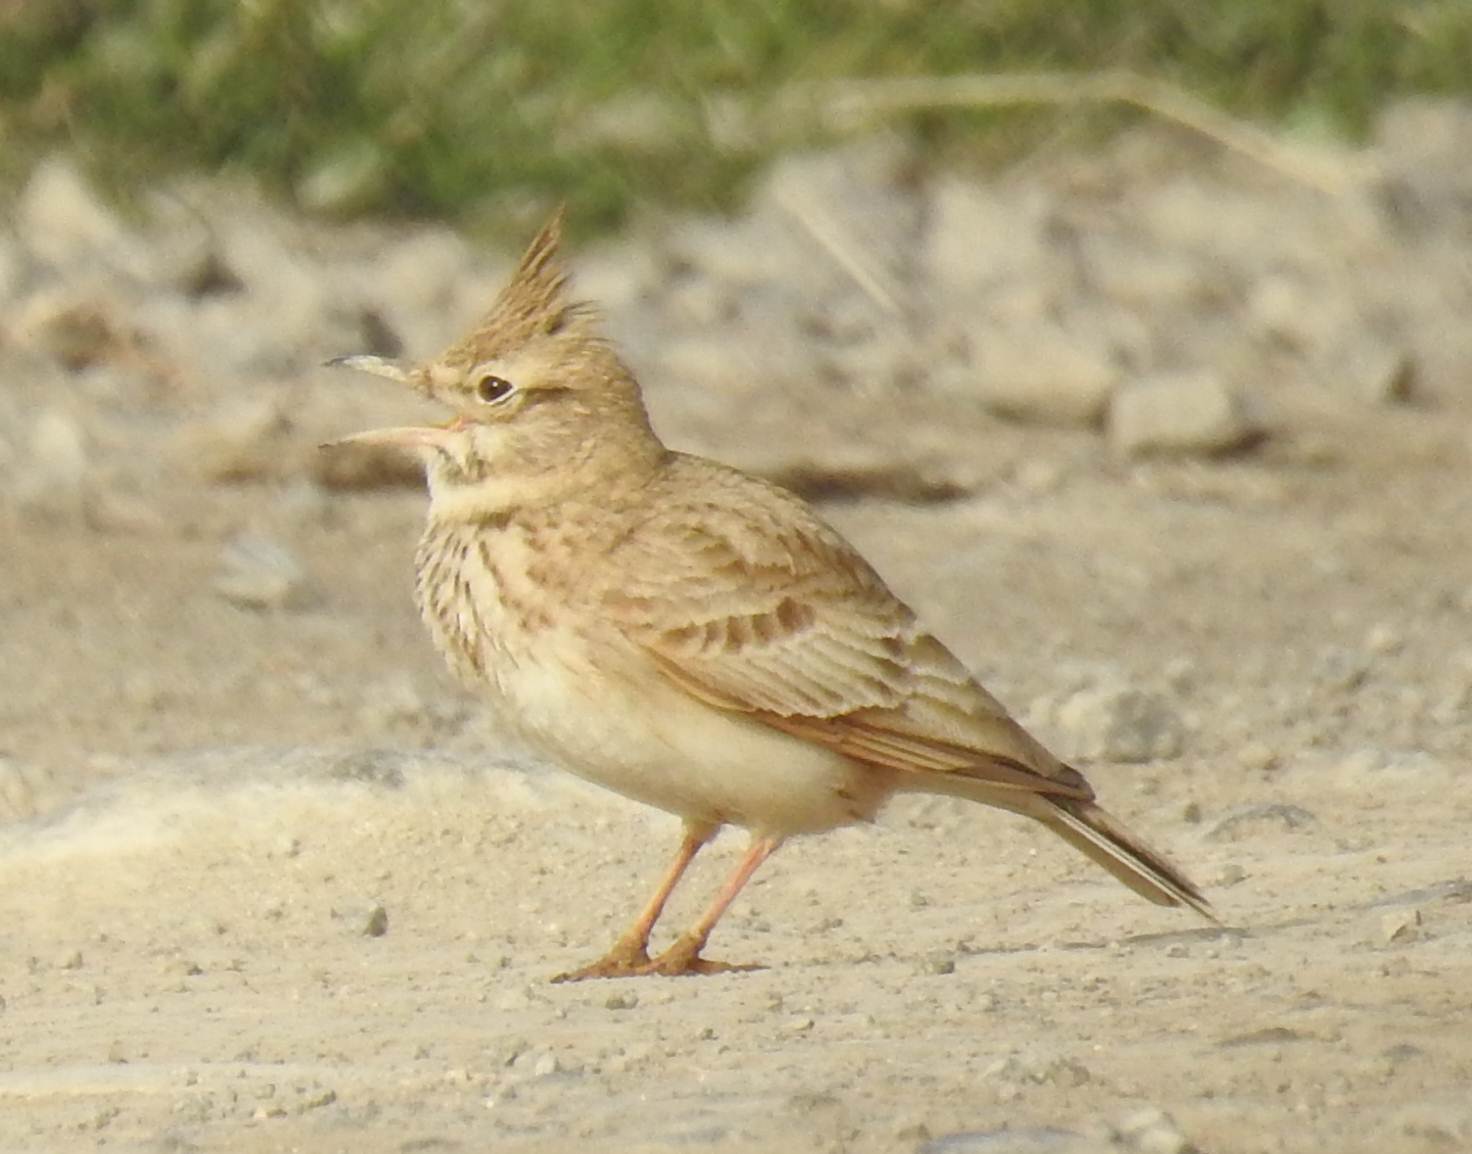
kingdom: Animalia
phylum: Chordata
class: Aves
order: Passeriformes
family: Alaudidae
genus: Galerida
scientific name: Galerida cristata
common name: Crested lark
